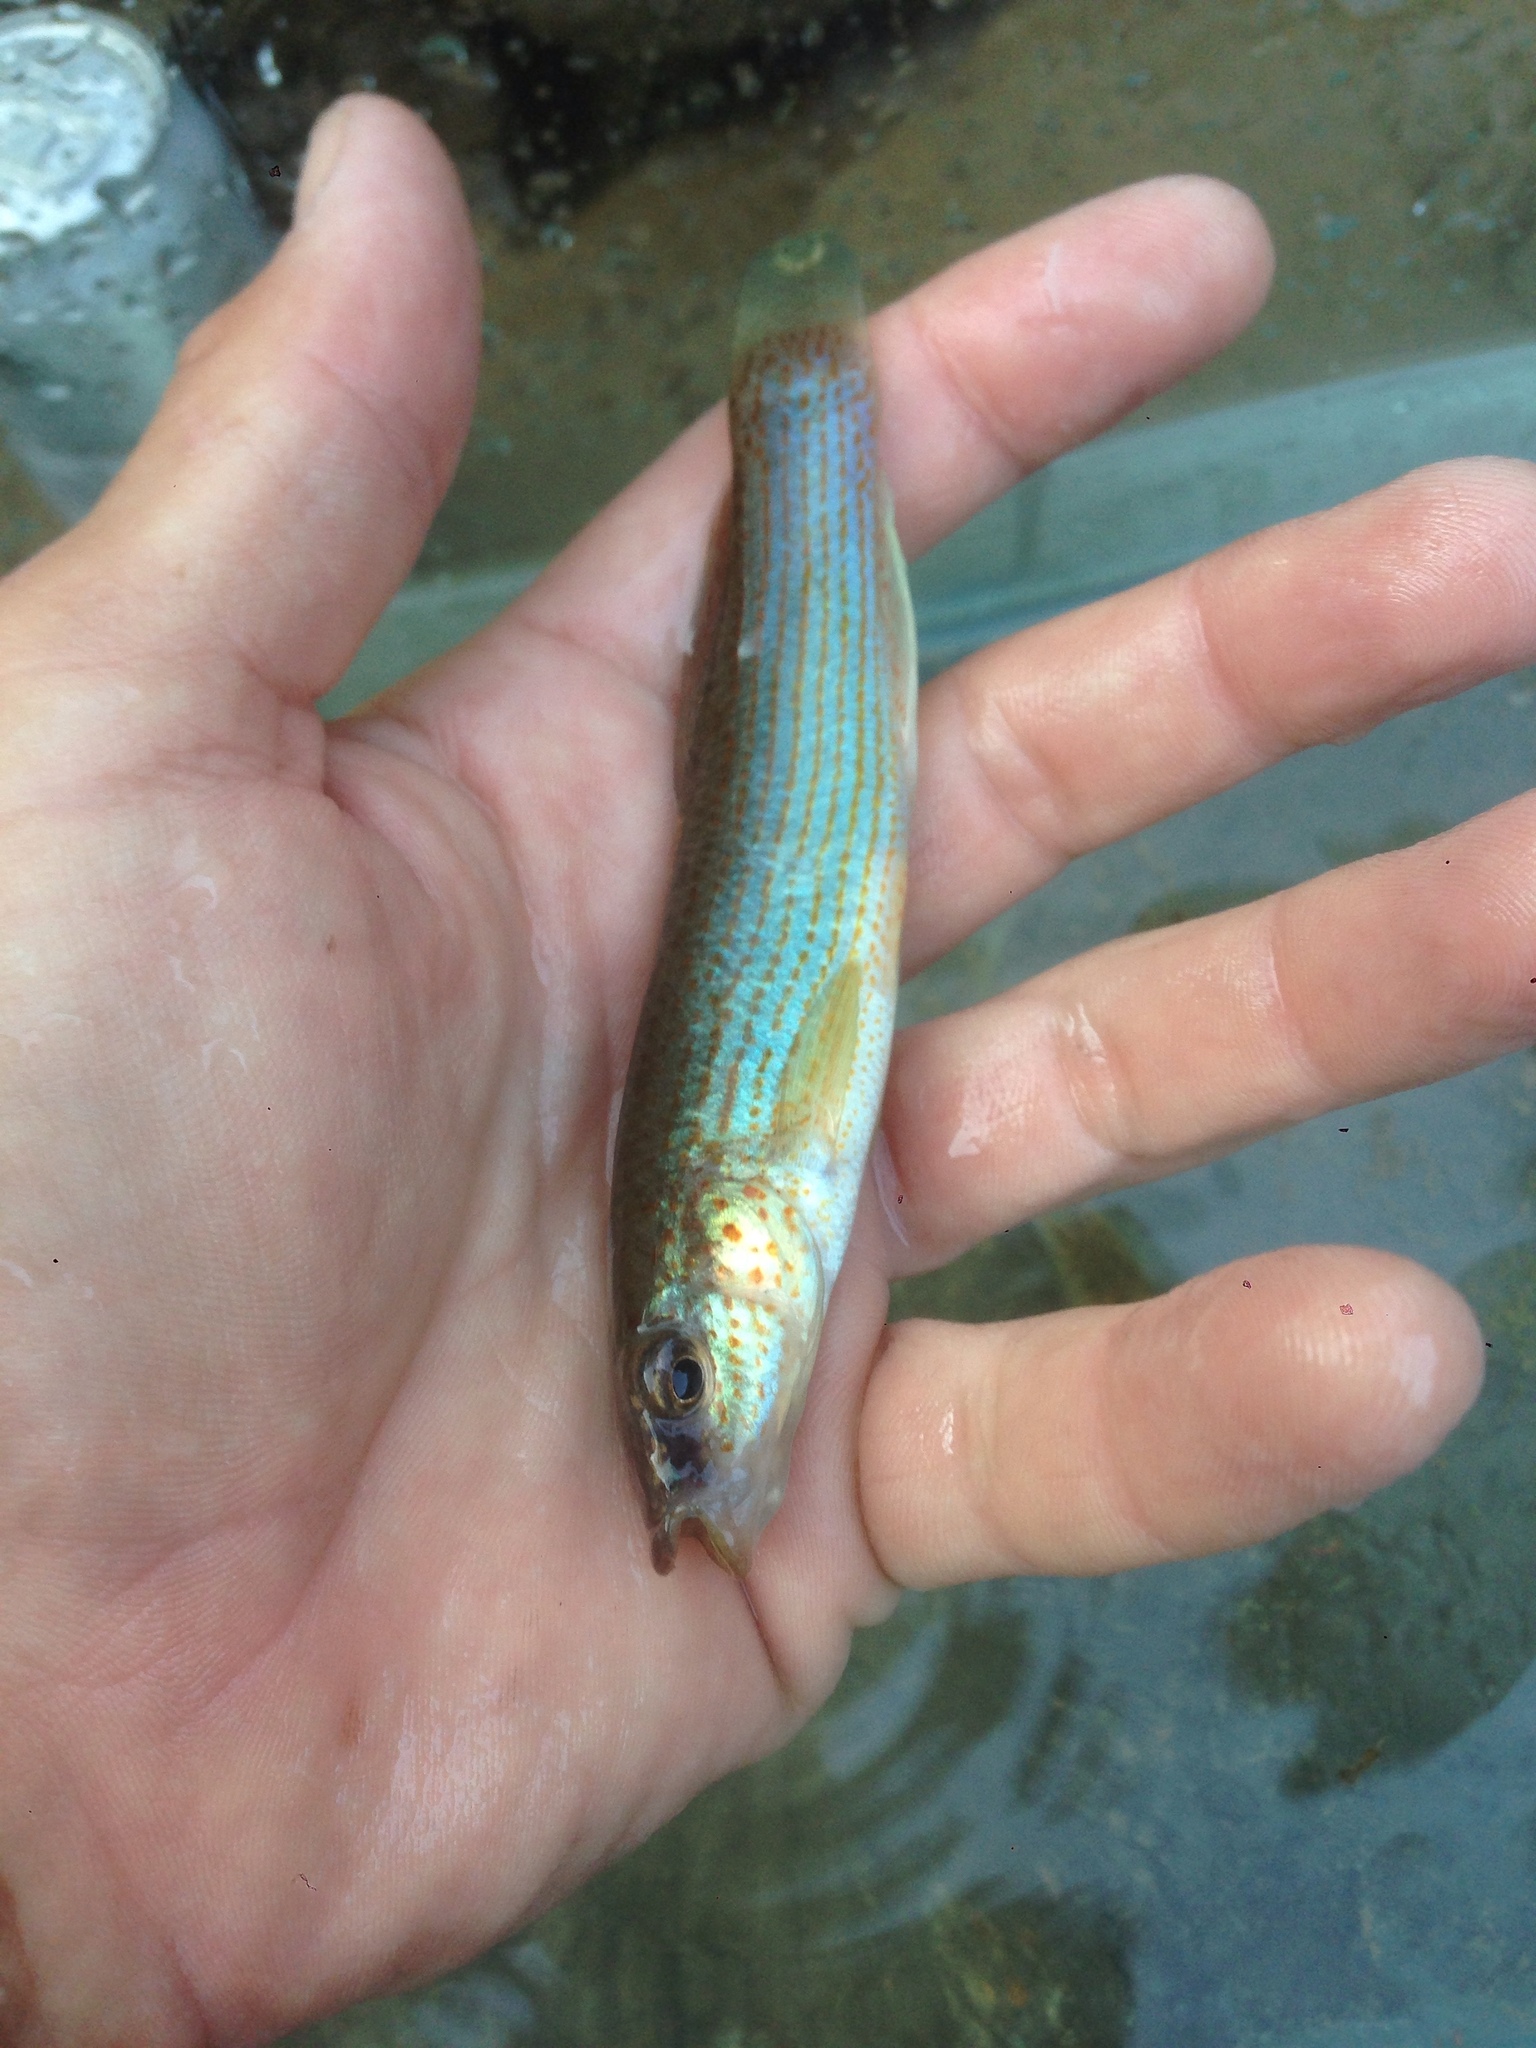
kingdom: Animalia
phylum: Chordata
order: Cyprinodontiformes
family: Fundulidae
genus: Fundulus
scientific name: Fundulus catenatus
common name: Northern studfish
